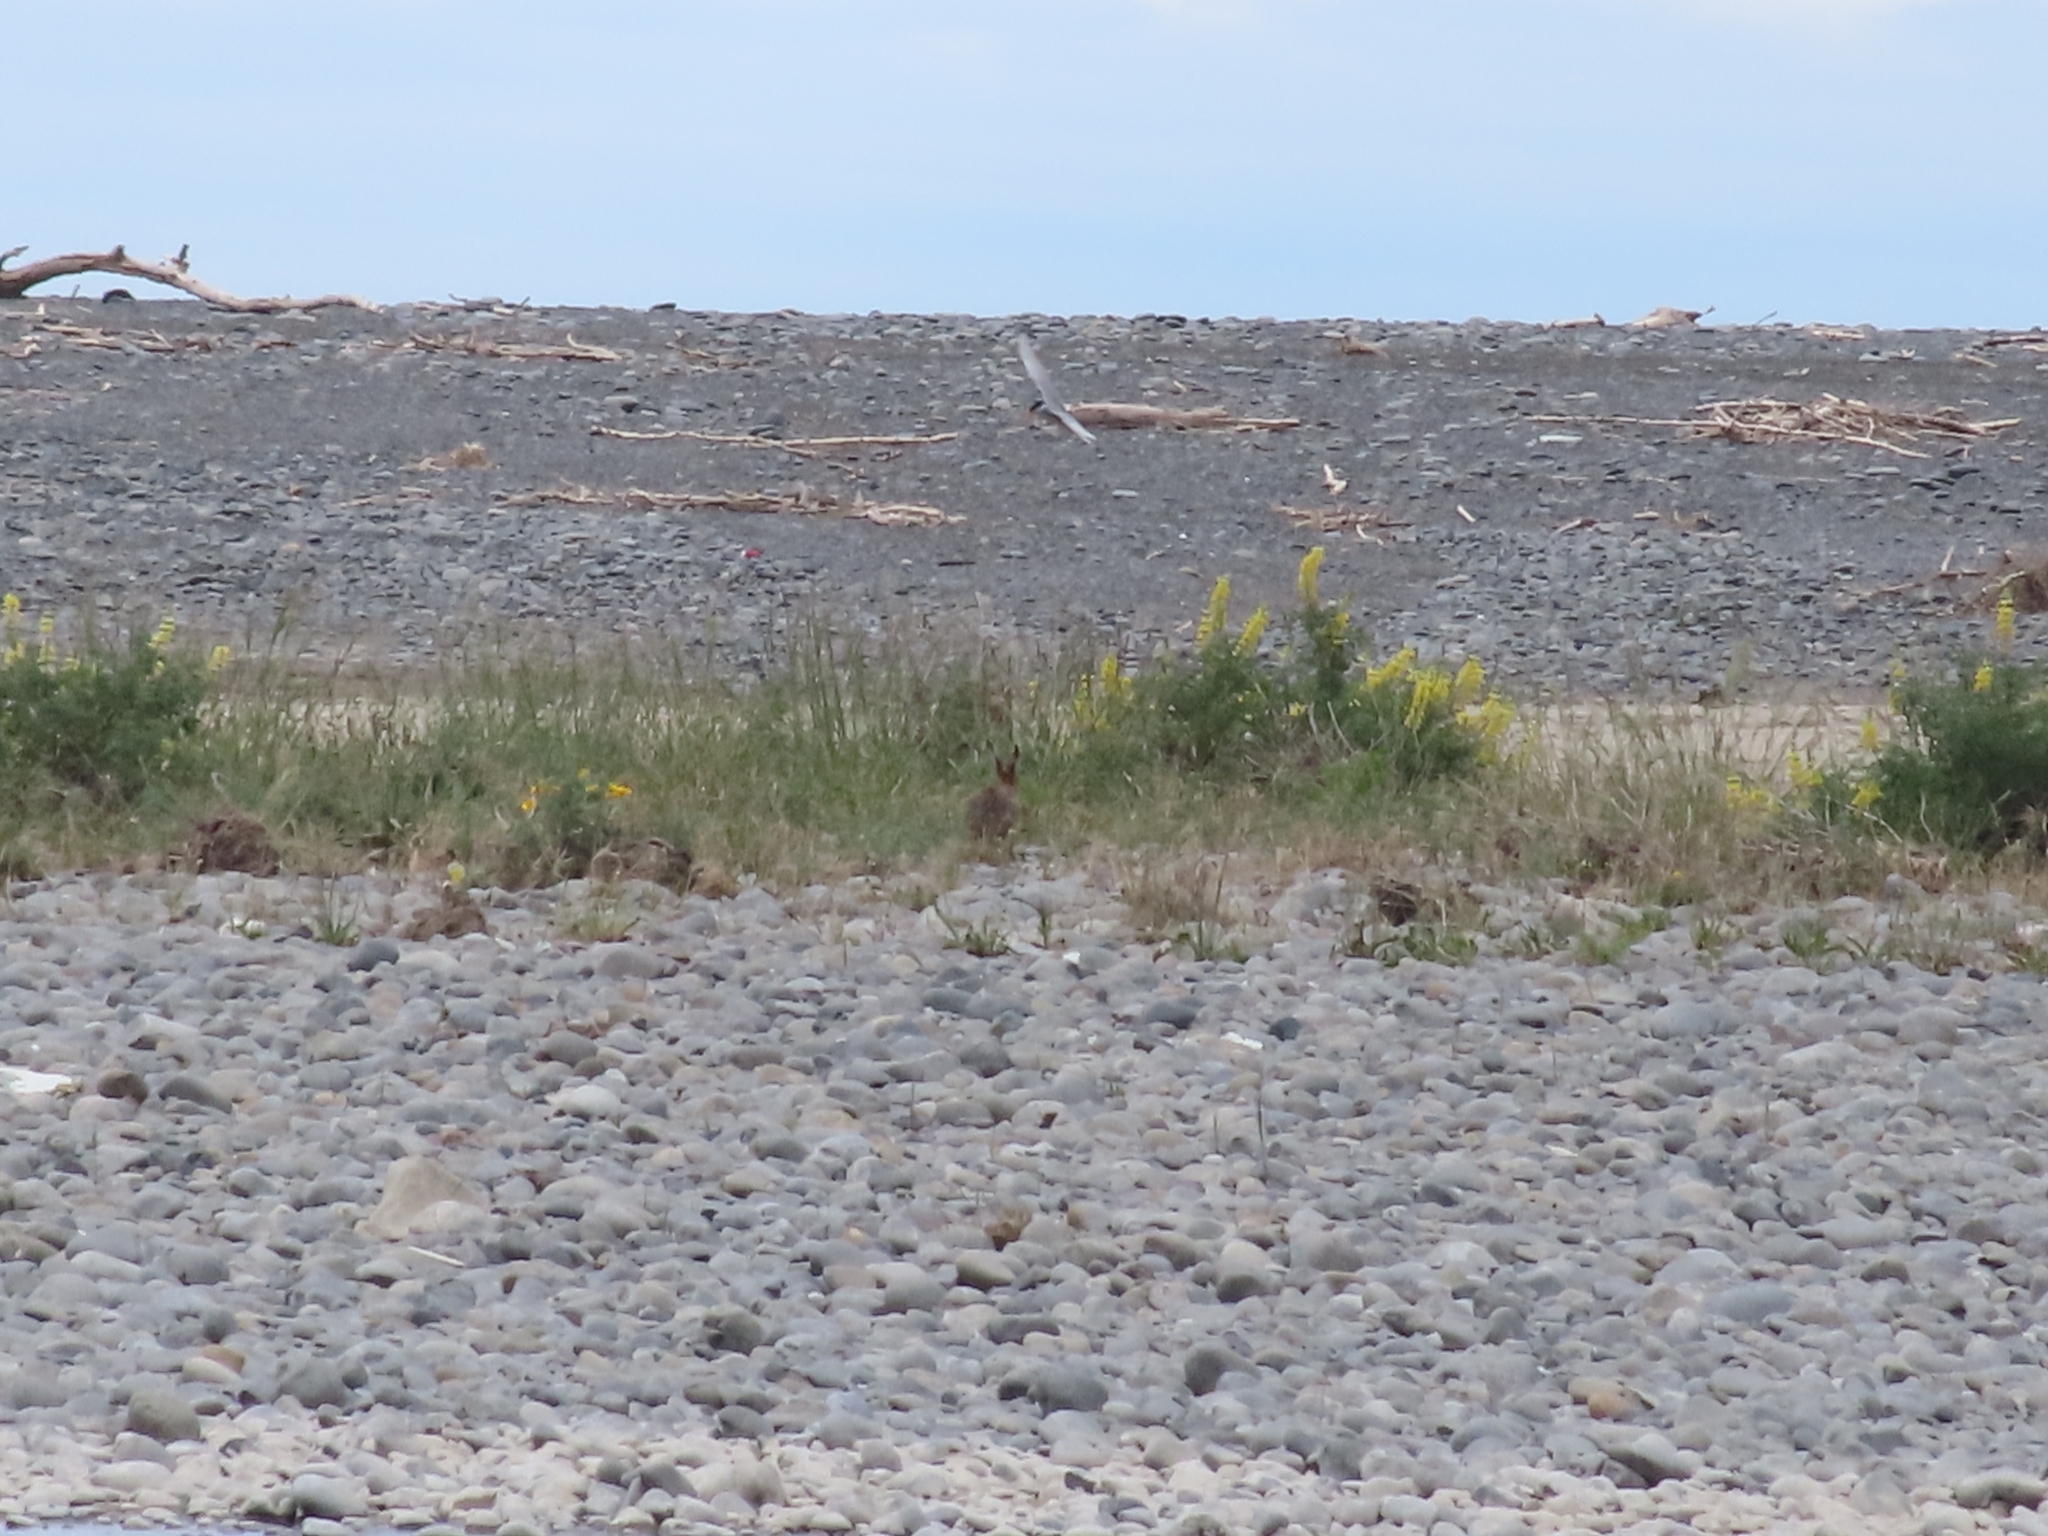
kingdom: Animalia
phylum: Chordata
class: Mammalia
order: Lagomorpha
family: Leporidae
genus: Lepus
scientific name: Lepus europaeus
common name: European hare
